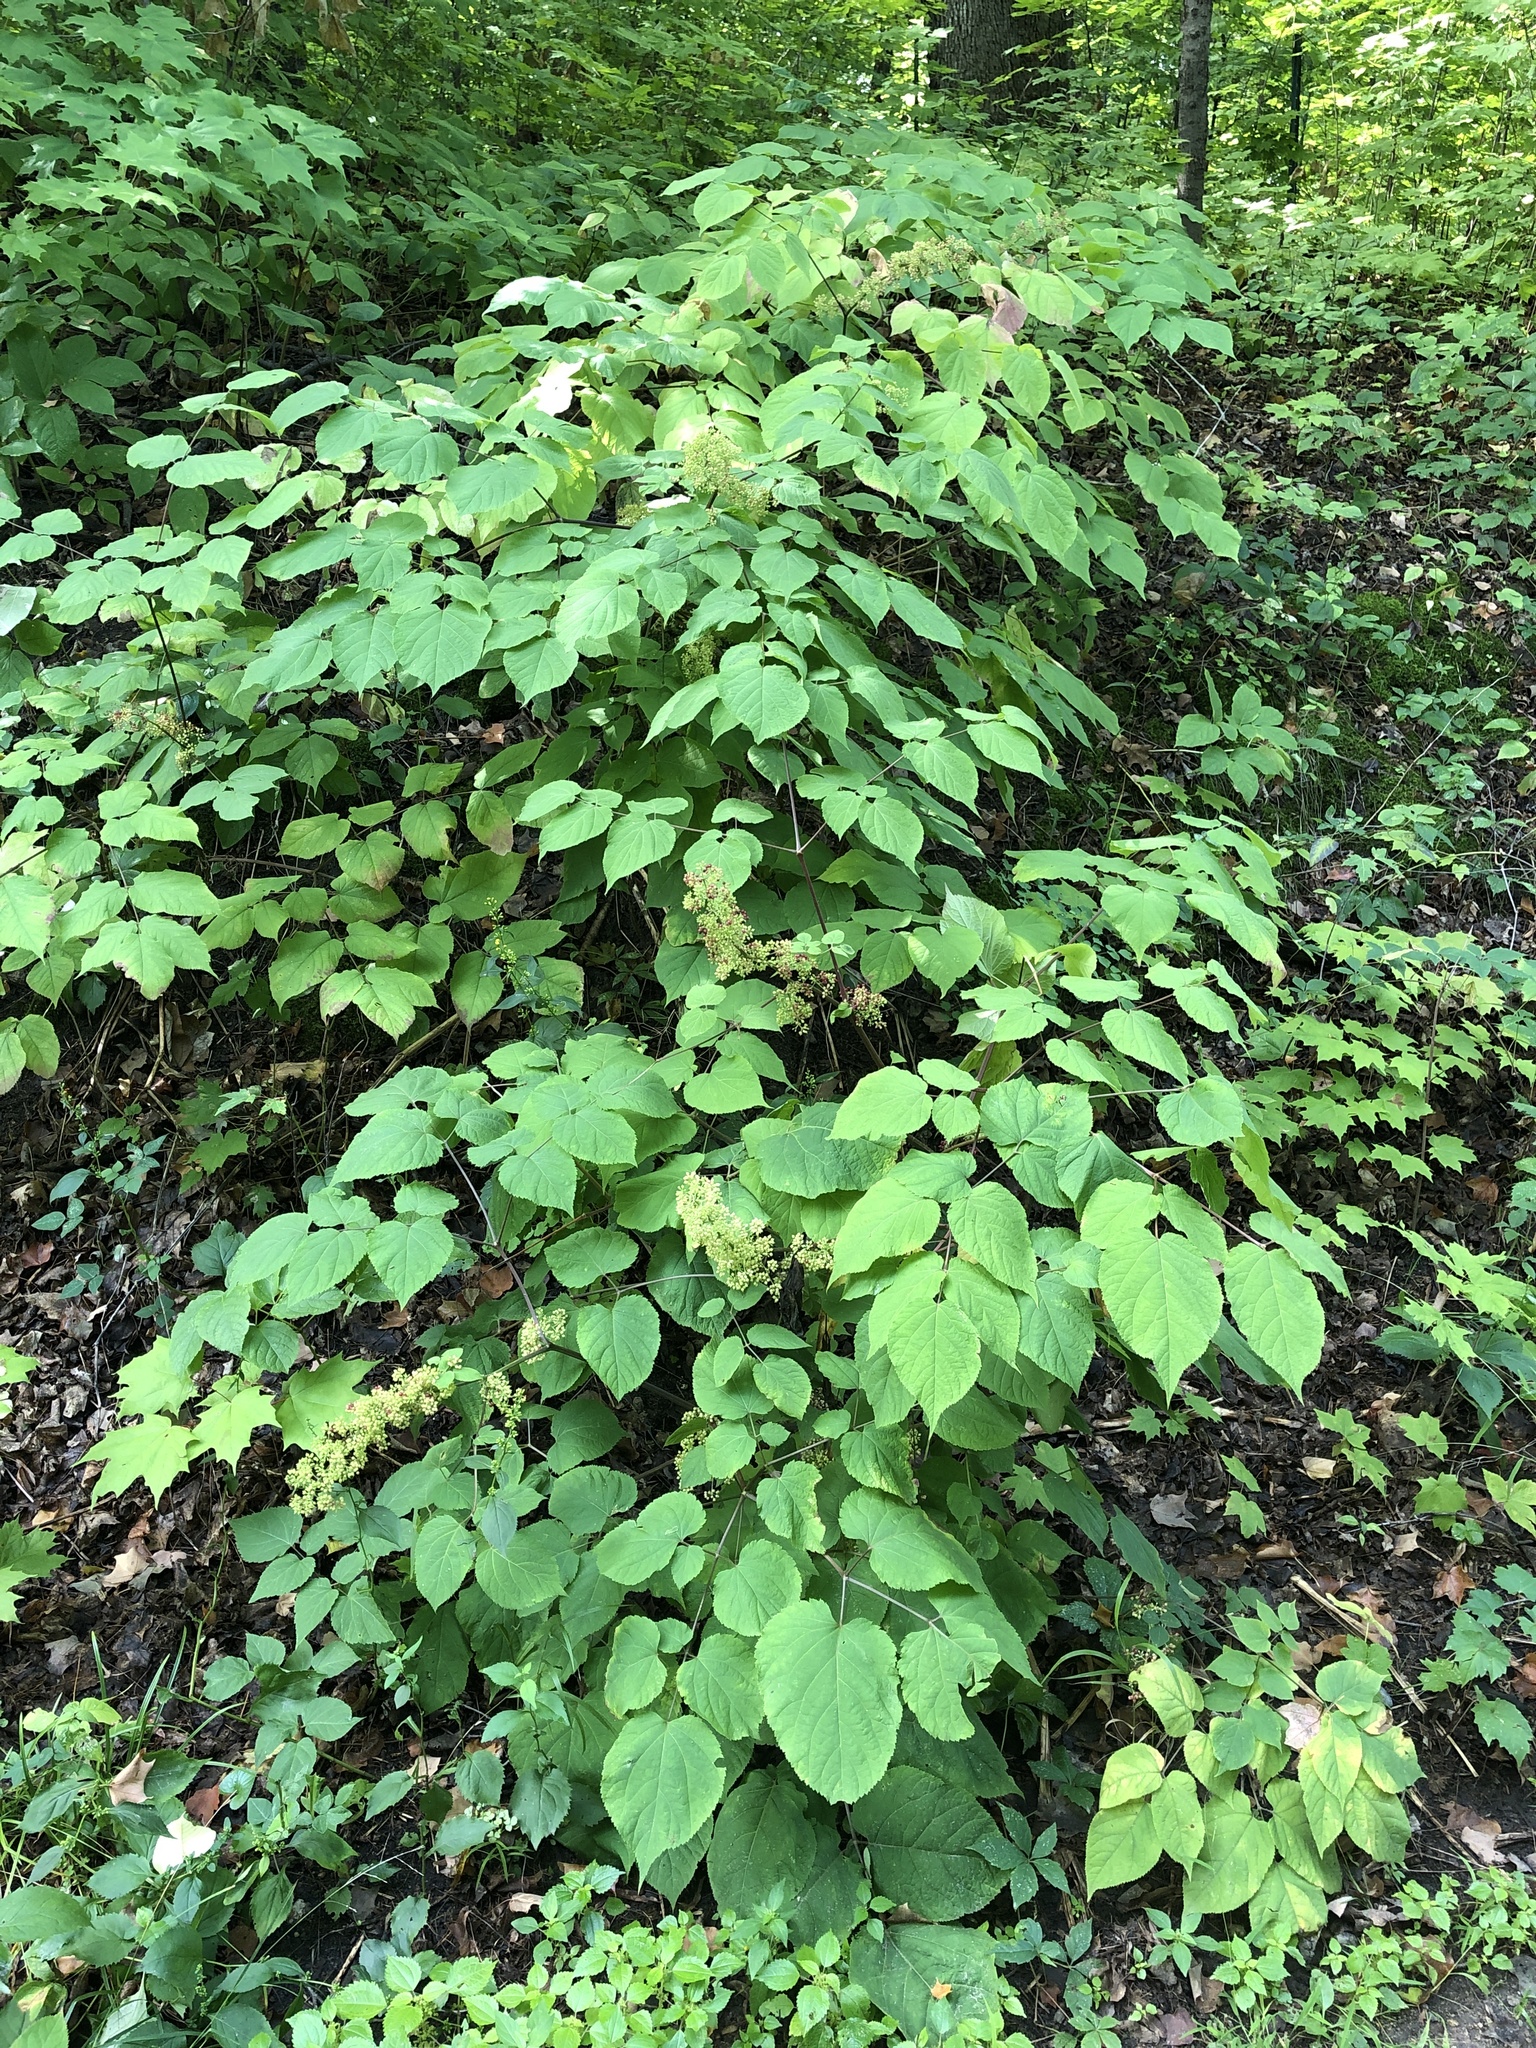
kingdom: Plantae
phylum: Tracheophyta
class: Magnoliopsida
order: Apiales
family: Araliaceae
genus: Aralia
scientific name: Aralia racemosa
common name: American-spikenard
